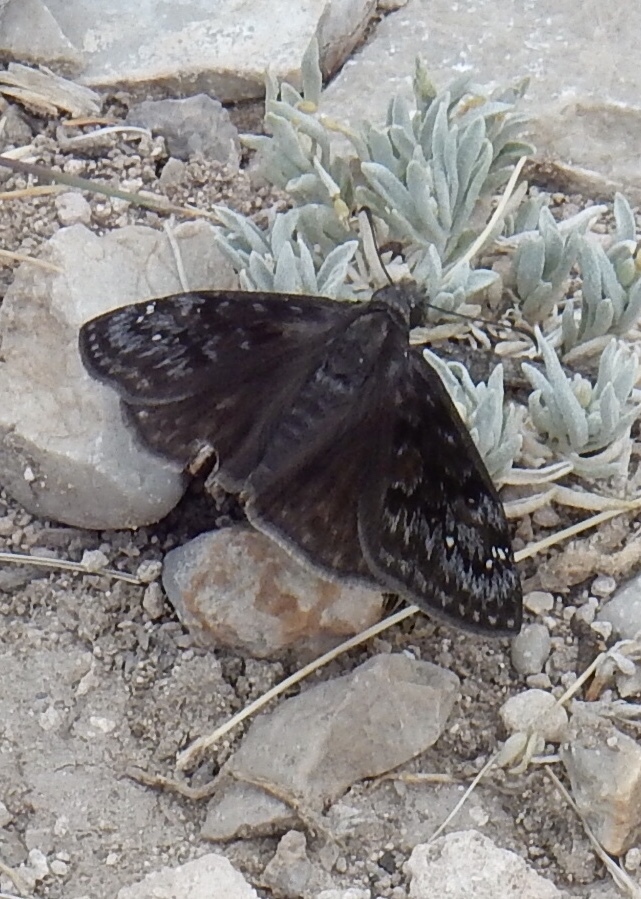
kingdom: Animalia
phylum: Arthropoda
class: Insecta
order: Lepidoptera
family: Hesperiidae
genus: Erynnis
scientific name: Erynnis persius
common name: Persius duskywing
